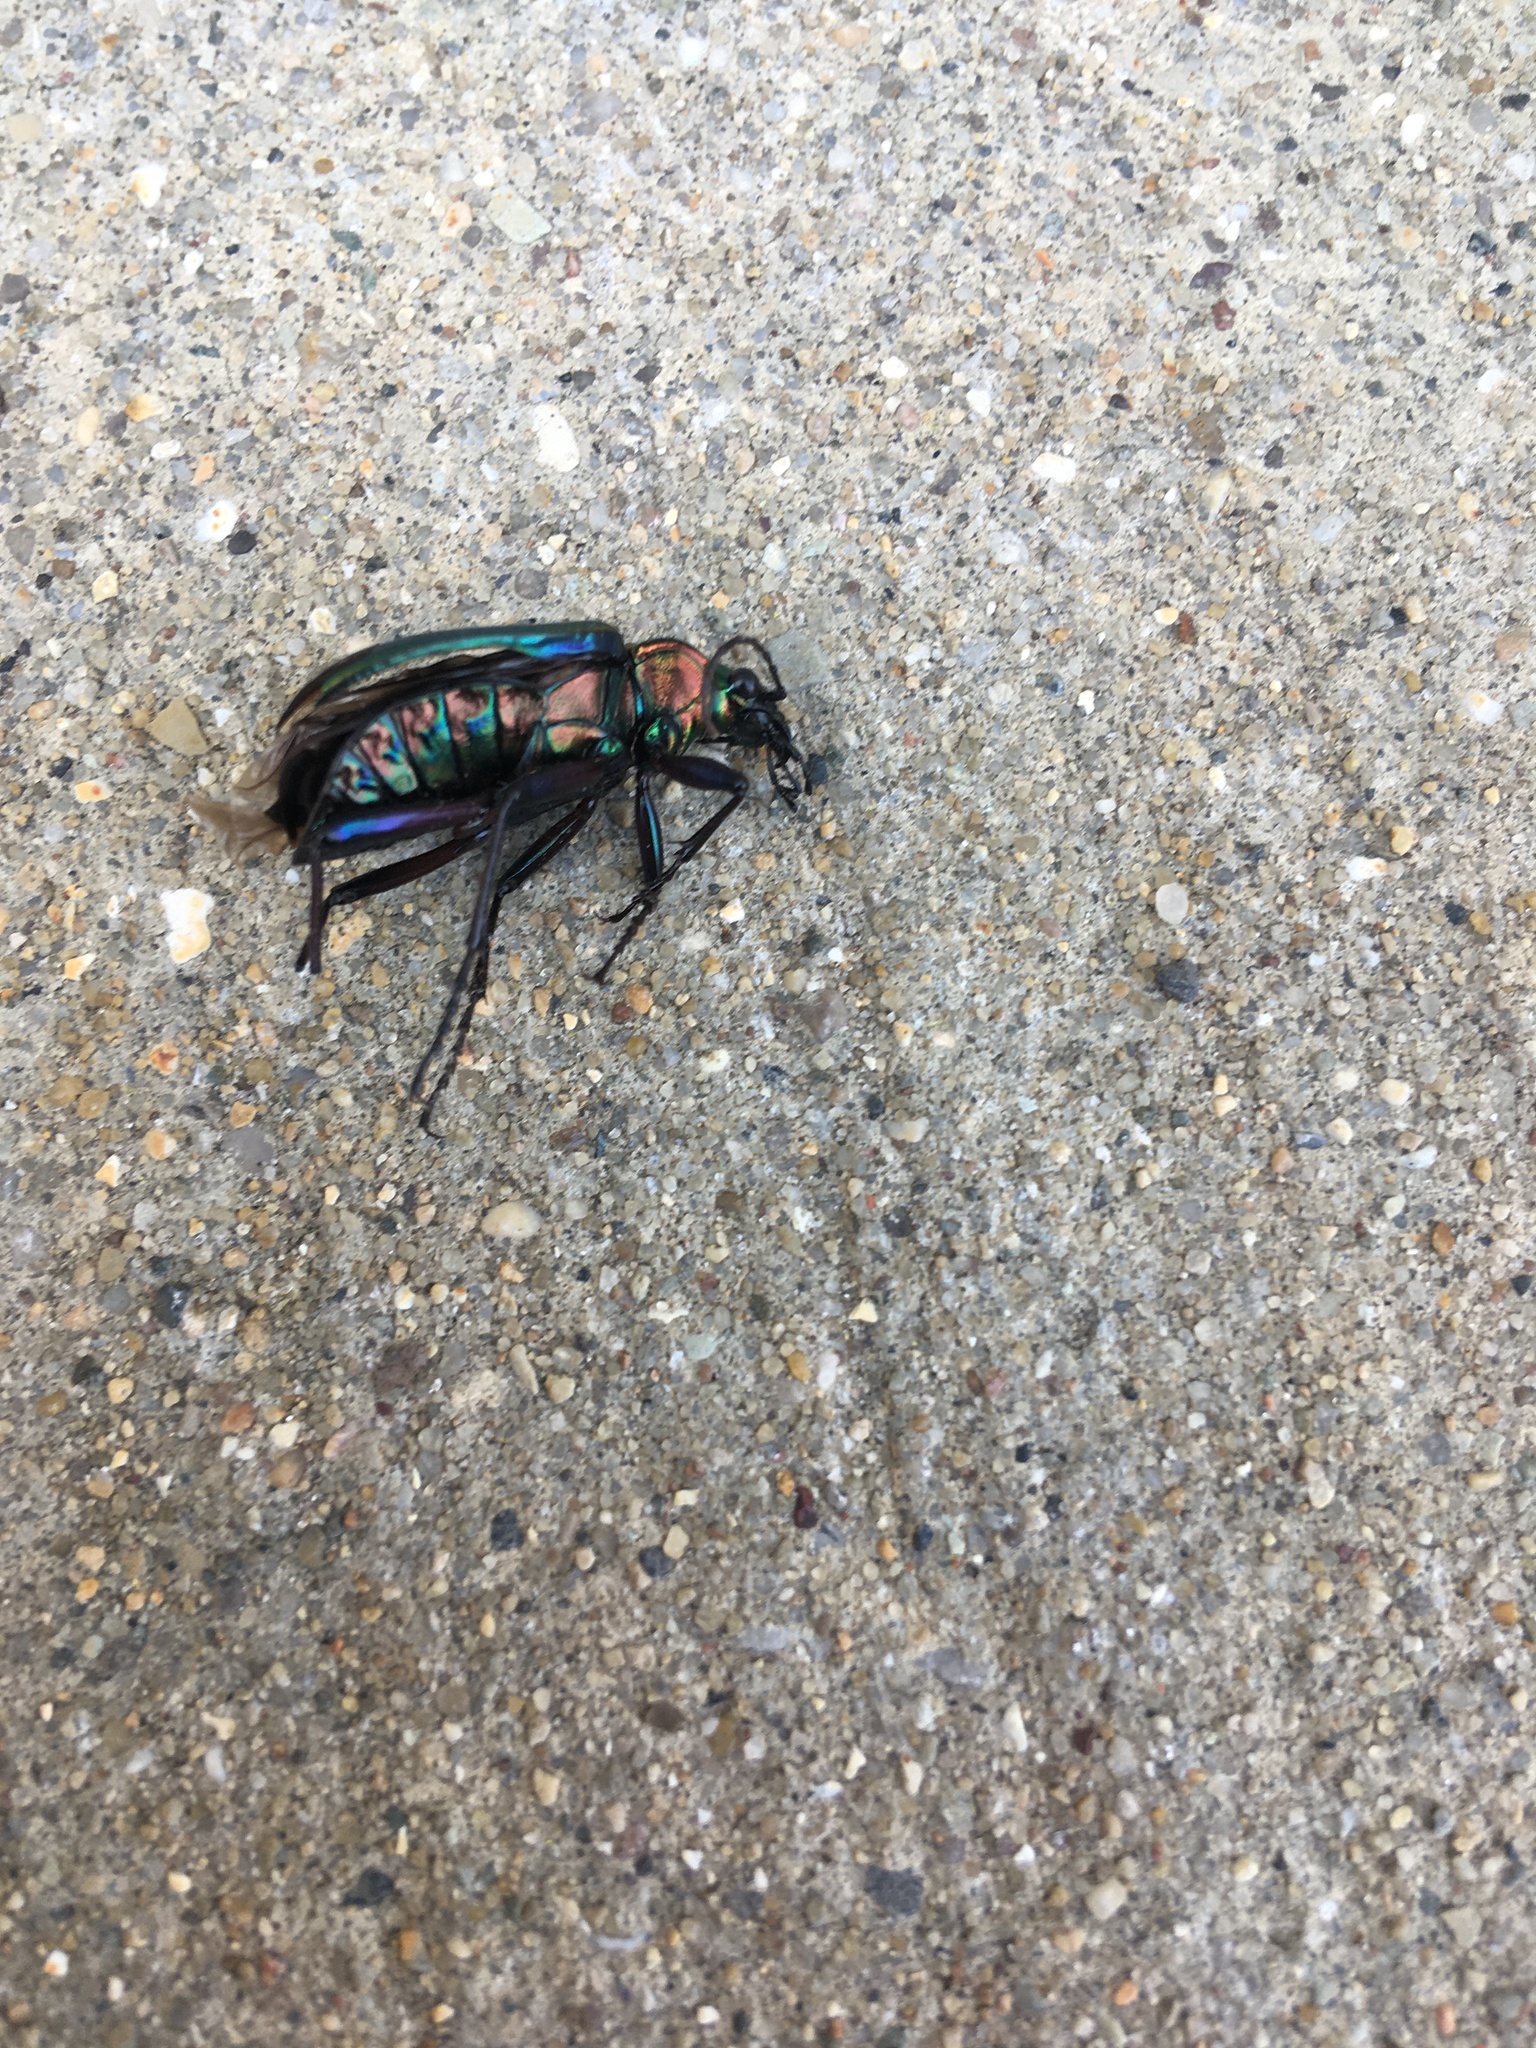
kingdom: Animalia
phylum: Arthropoda
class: Insecta
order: Coleoptera
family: Carabidae
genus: Calosoma
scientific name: Calosoma scrutator
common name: Fiery searcher beetle
